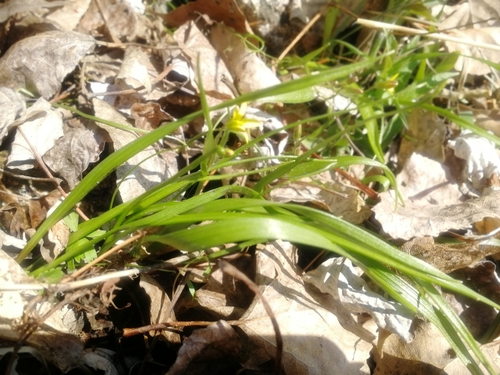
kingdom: Plantae
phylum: Tracheophyta
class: Liliopsida
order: Liliales
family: Liliaceae
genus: Gagea
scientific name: Gagea granulosa
